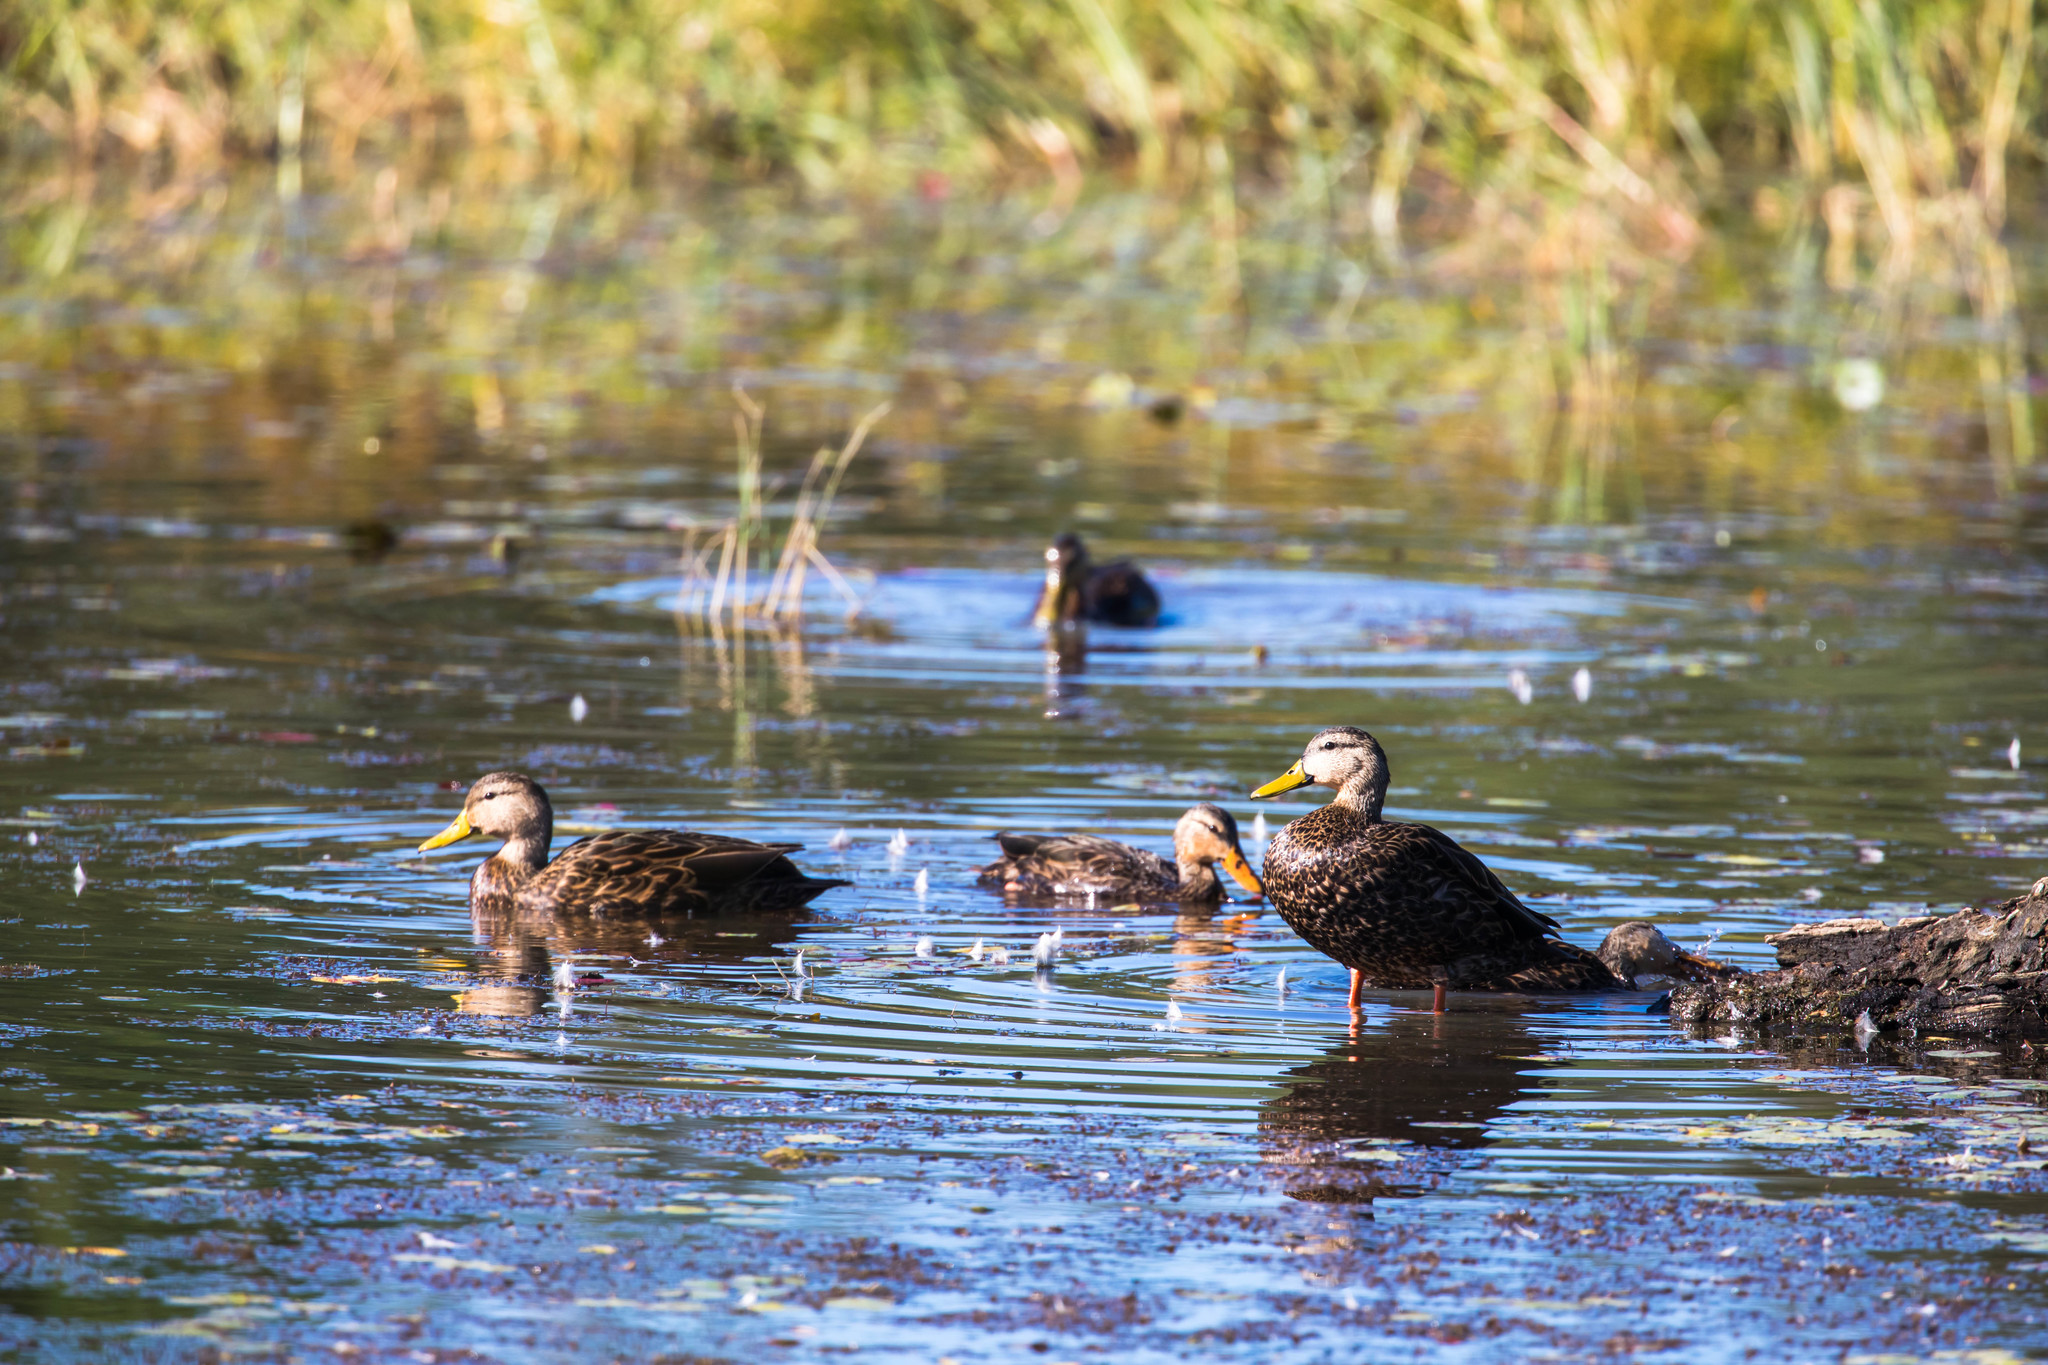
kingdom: Animalia
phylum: Chordata
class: Aves
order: Anseriformes
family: Anatidae
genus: Anas
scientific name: Anas fulvigula
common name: Mottled duck
